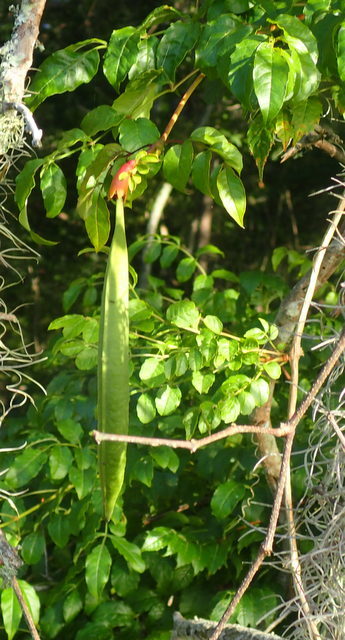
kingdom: Plantae
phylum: Tracheophyta
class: Magnoliopsida
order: Lamiales
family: Bignoniaceae
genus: Campsis
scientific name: Campsis radicans
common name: Trumpet-creeper
